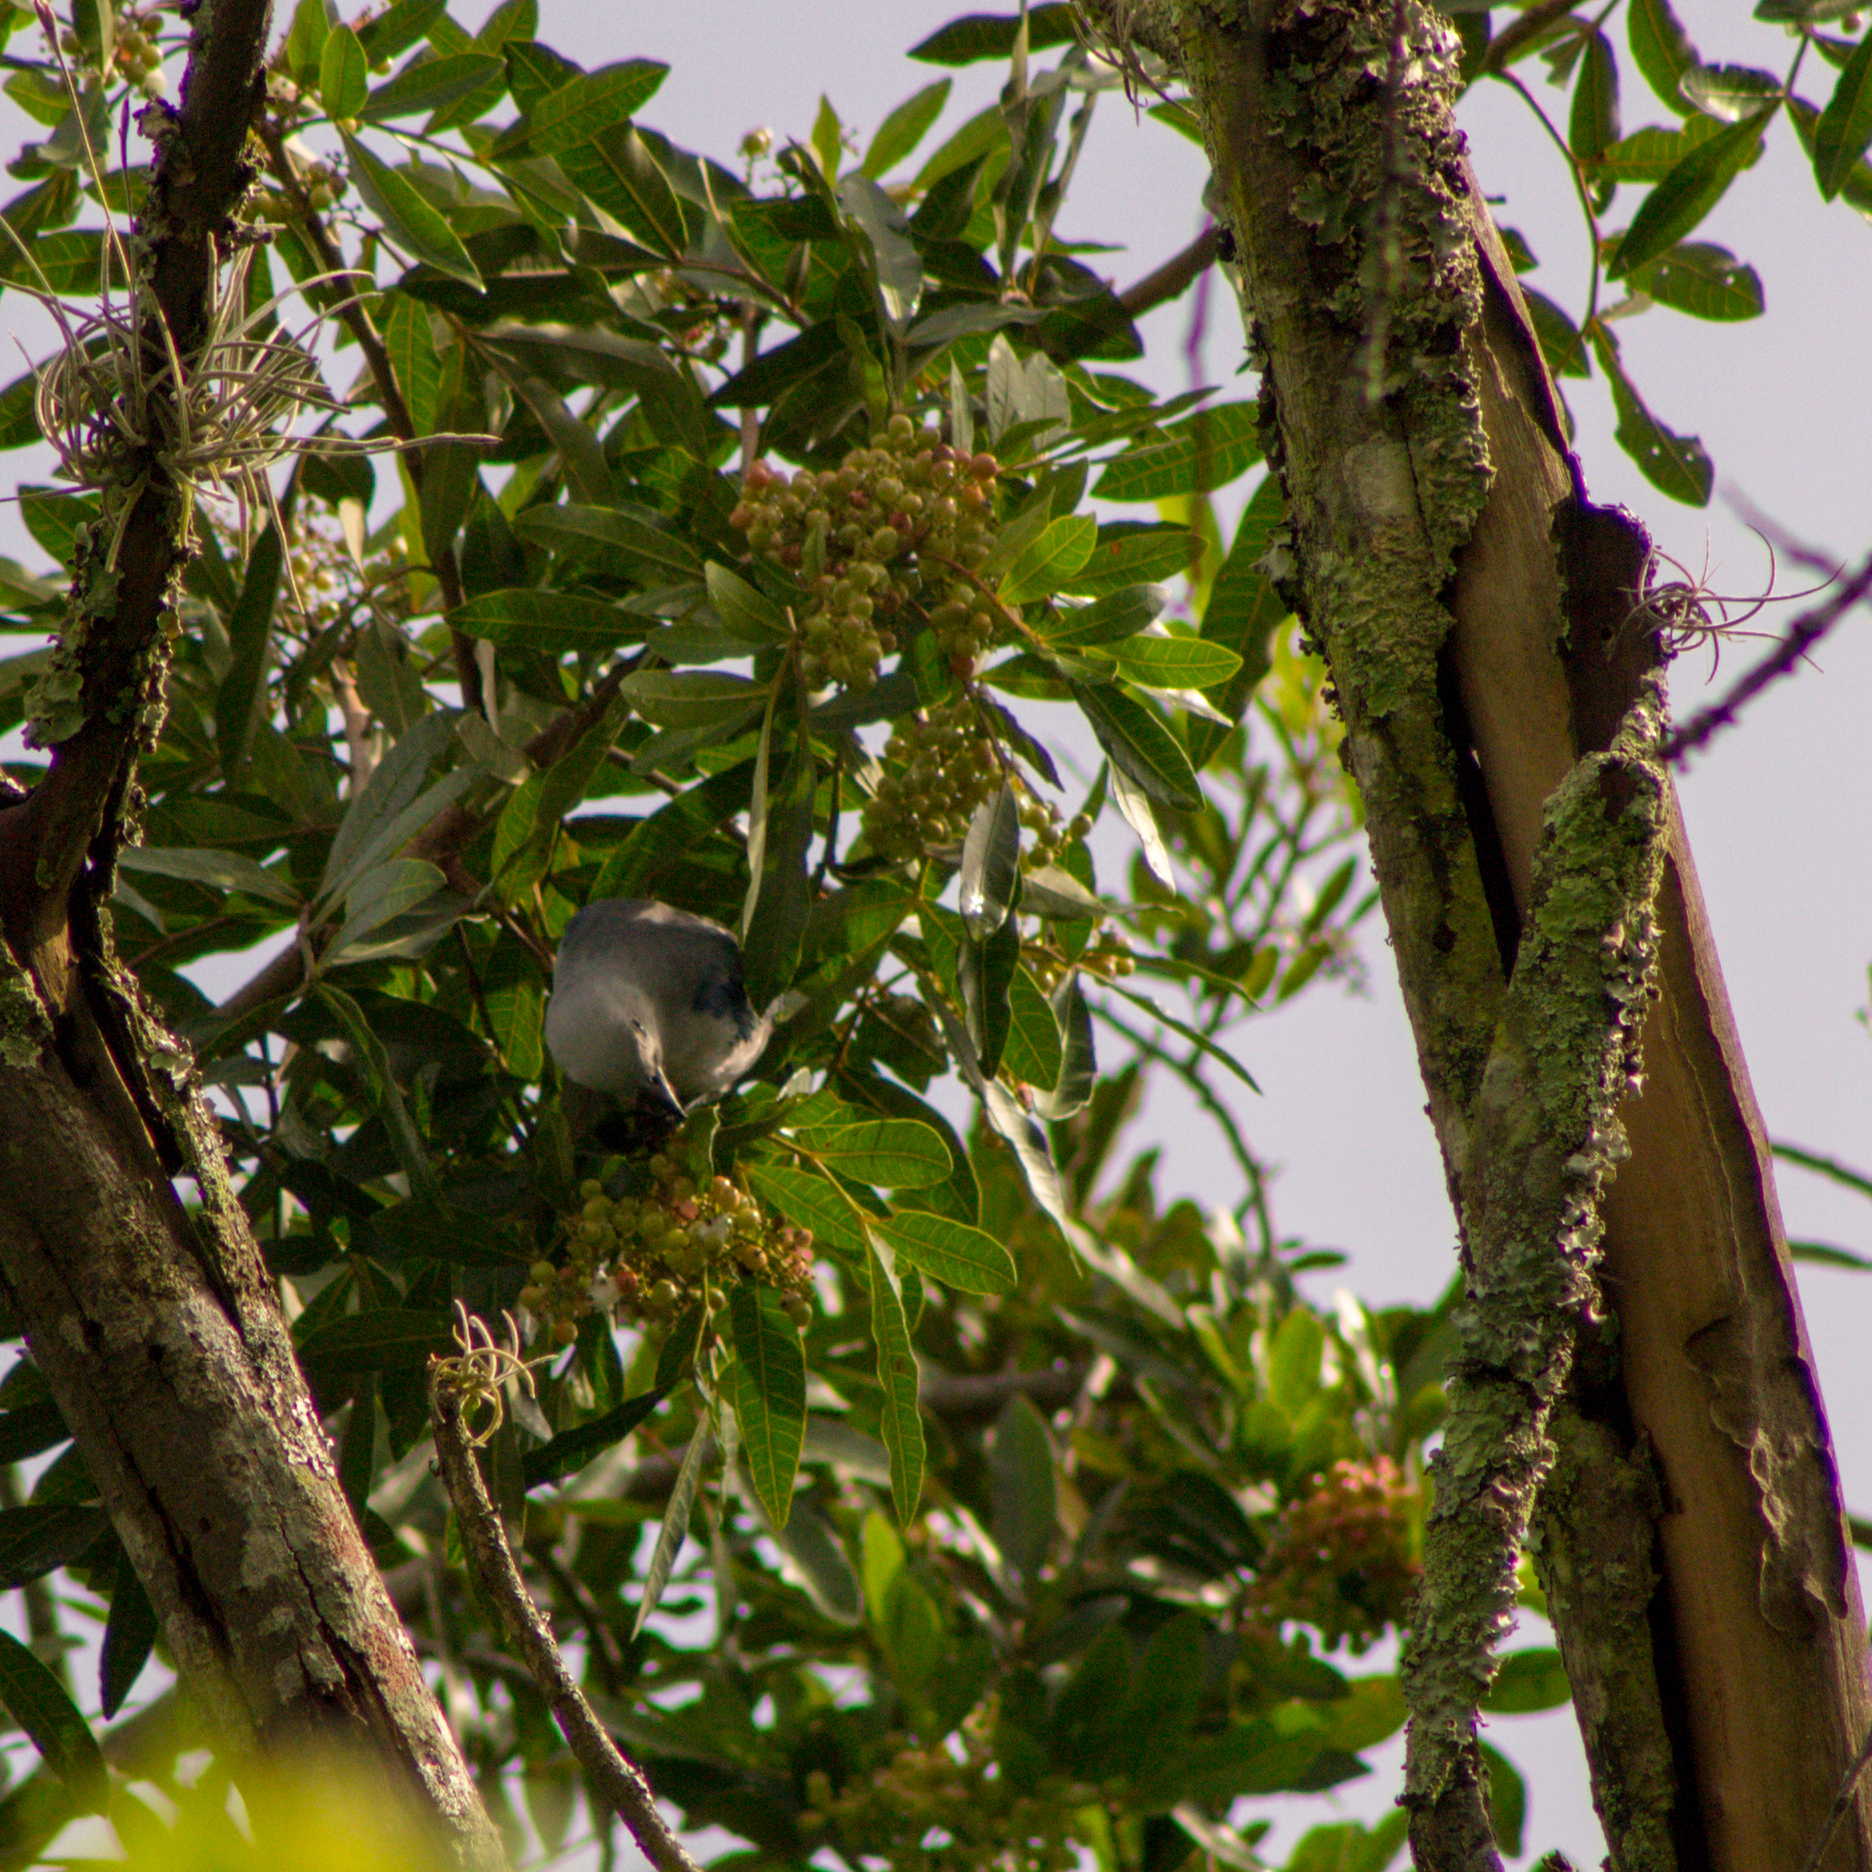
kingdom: Animalia
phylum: Chordata
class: Aves
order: Passeriformes
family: Thraupidae
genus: Thraupis
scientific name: Thraupis episcopus
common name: Blue-grey tanager
